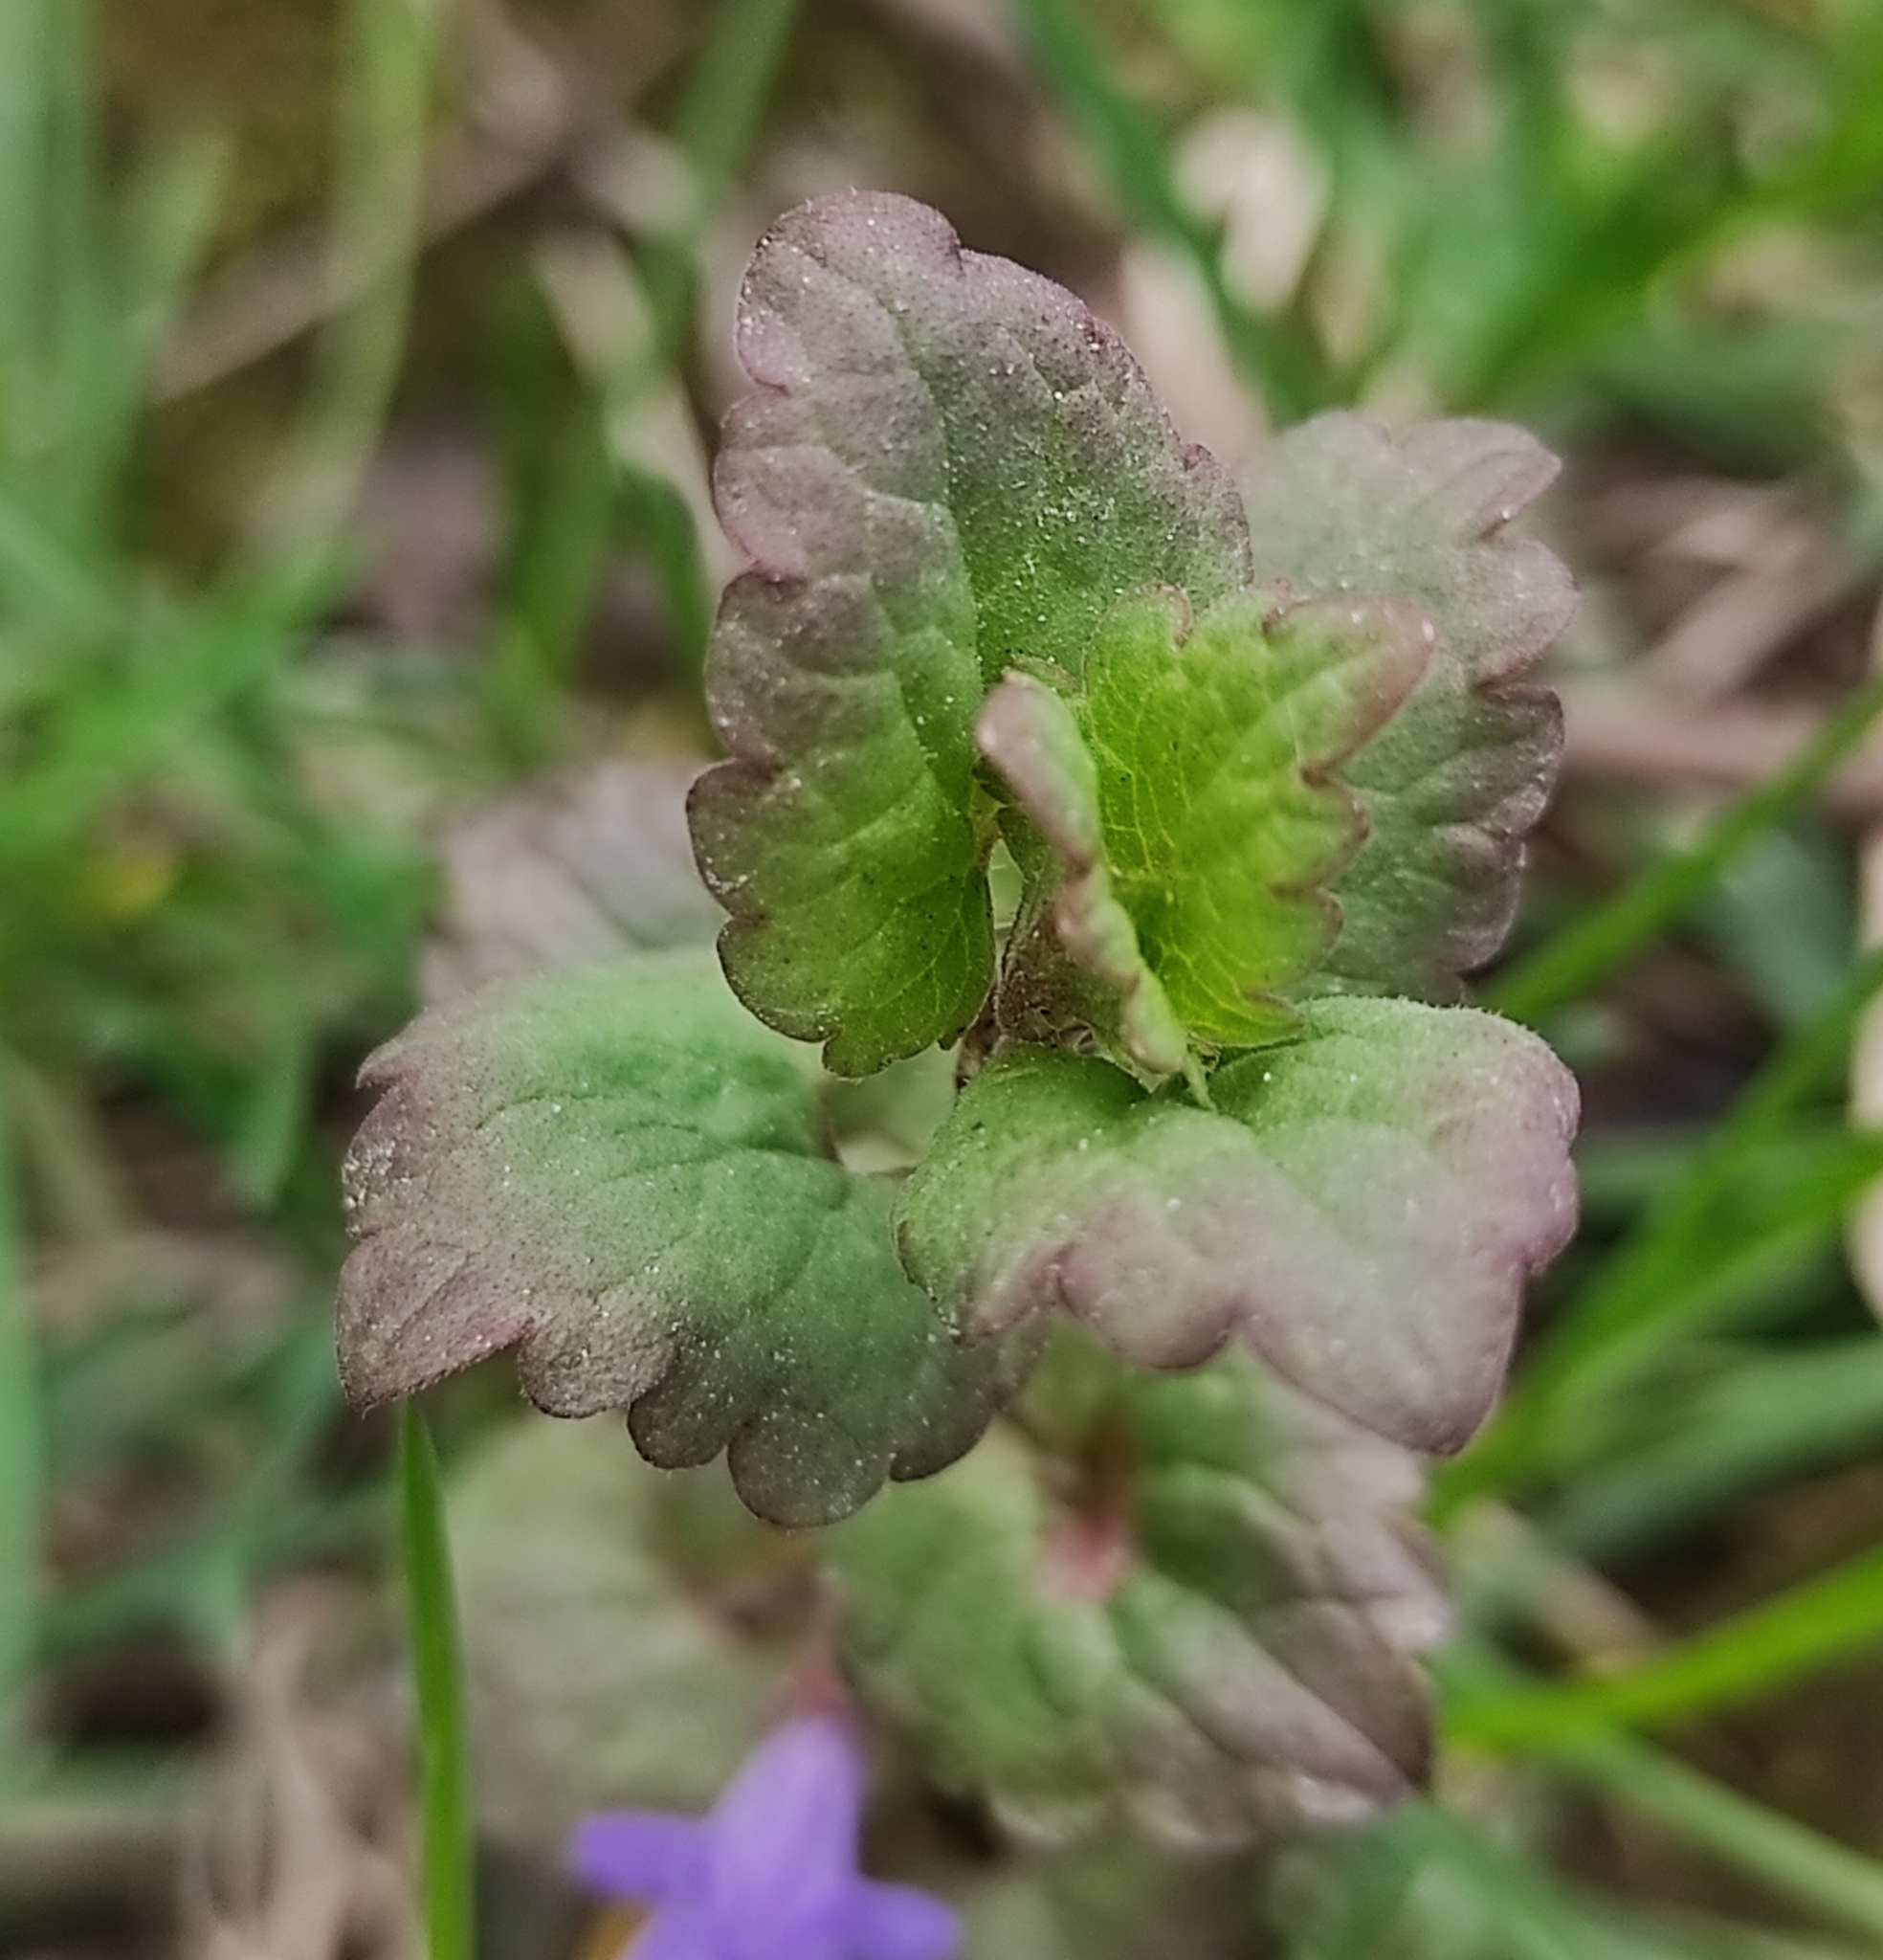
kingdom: Plantae
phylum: Tracheophyta
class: Magnoliopsida
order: Lamiales
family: Lamiaceae
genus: Glechoma
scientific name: Glechoma hederacea
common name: Ground ivy
